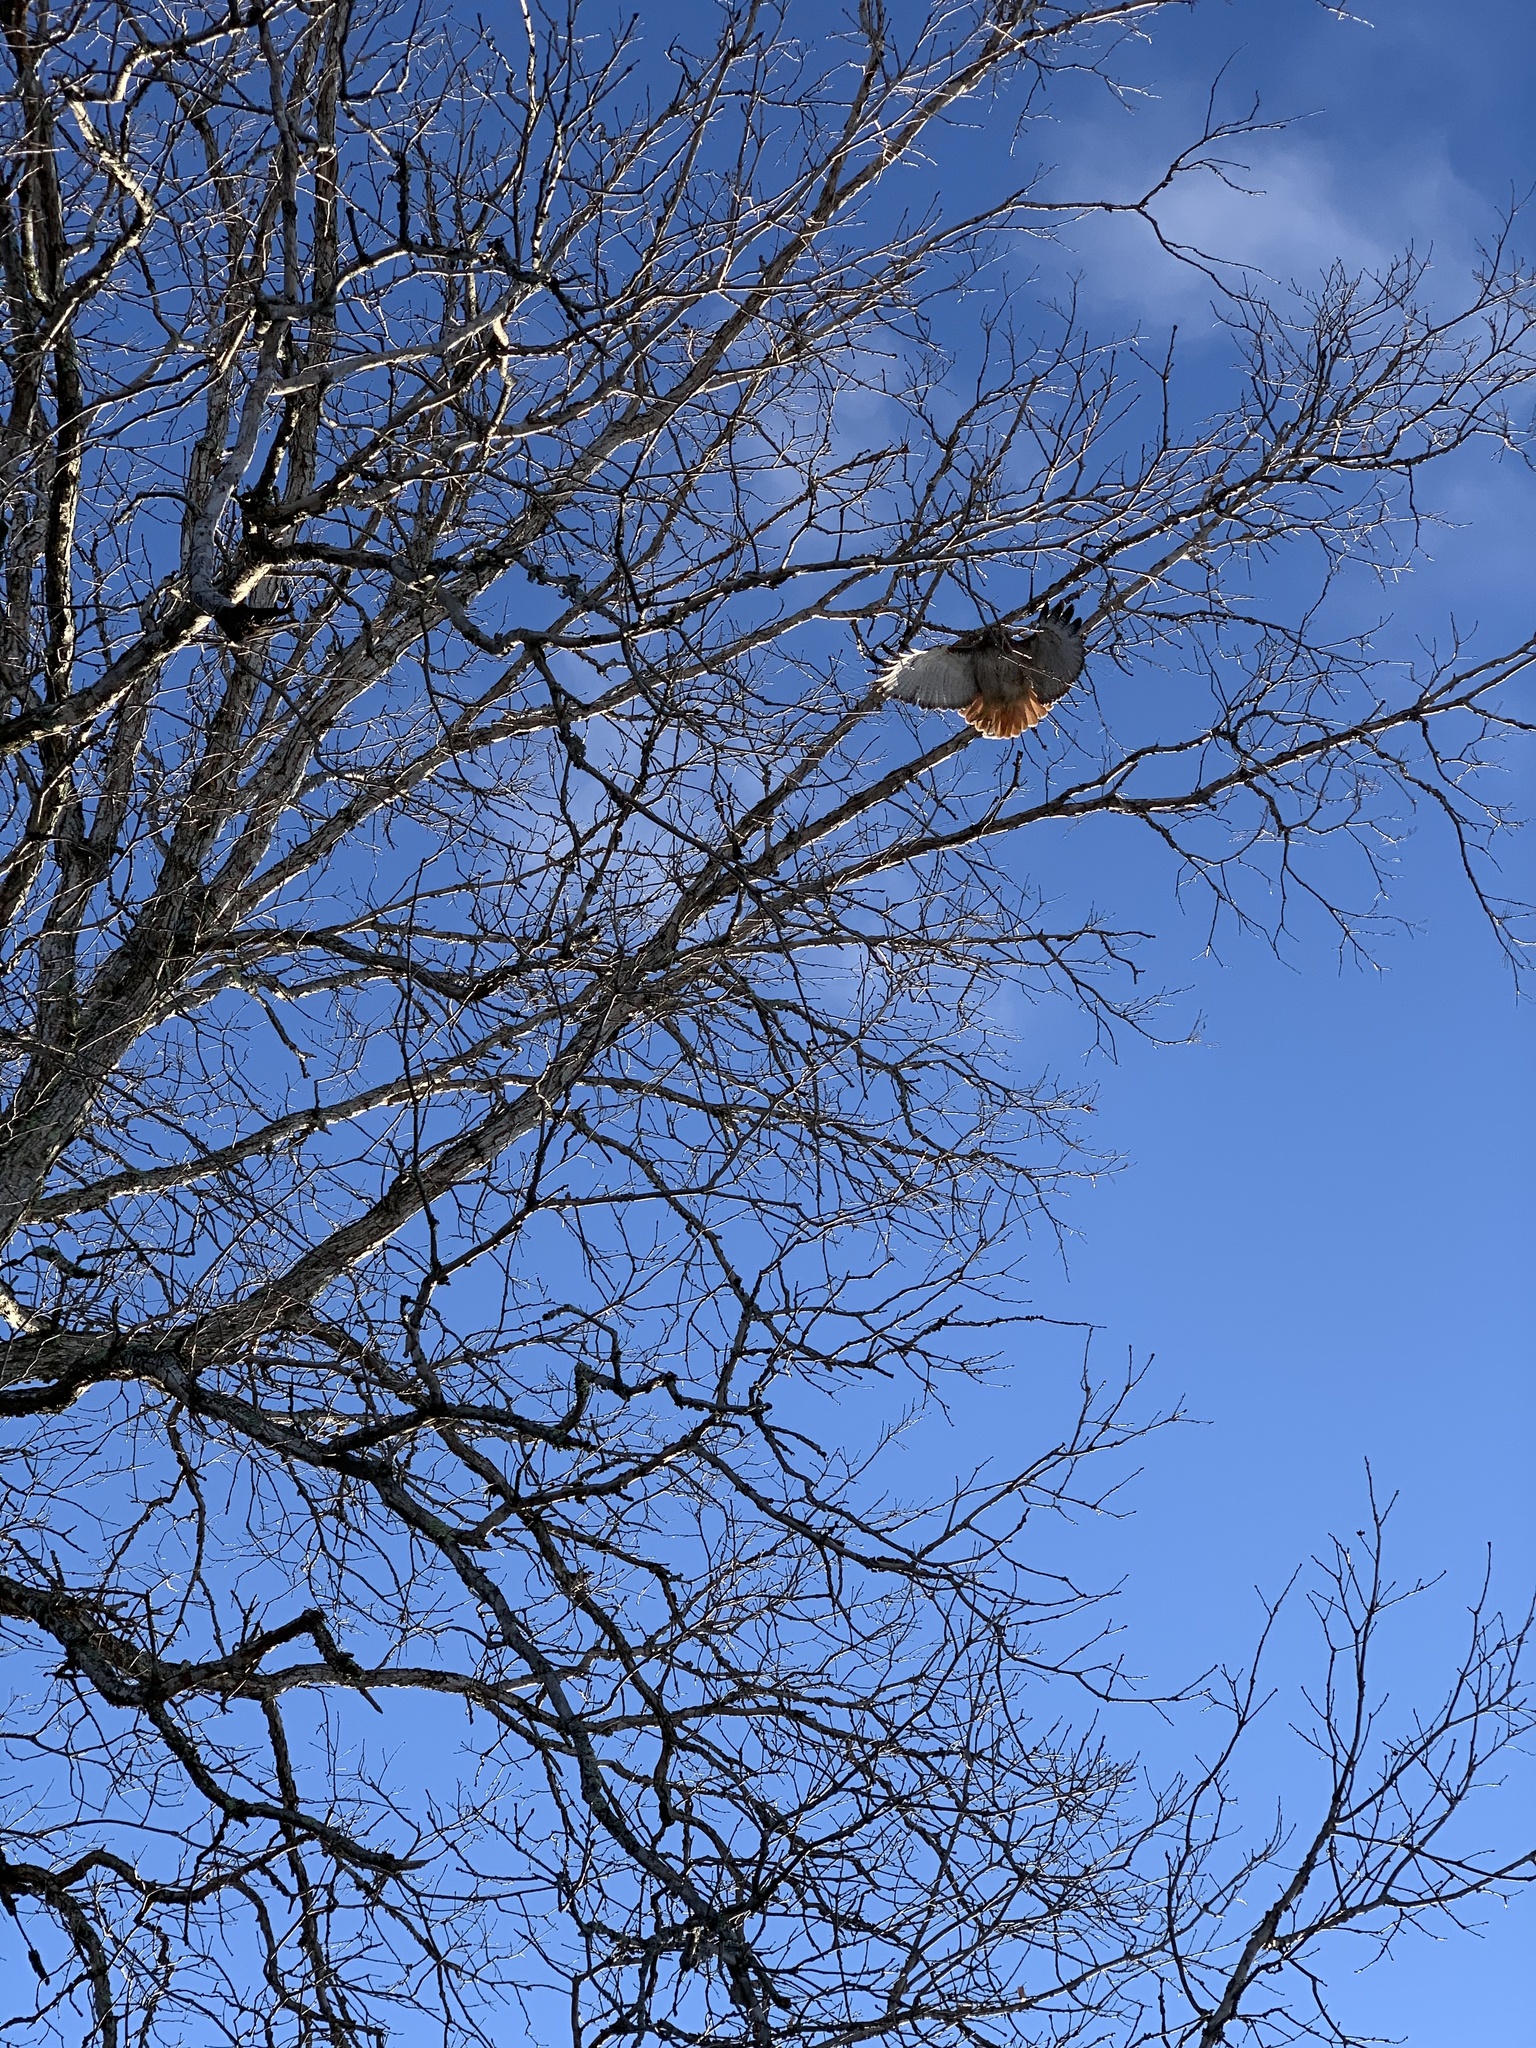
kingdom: Animalia
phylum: Chordata
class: Aves
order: Accipitriformes
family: Accipitridae
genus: Buteo
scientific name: Buteo jamaicensis
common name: Red-tailed hawk
